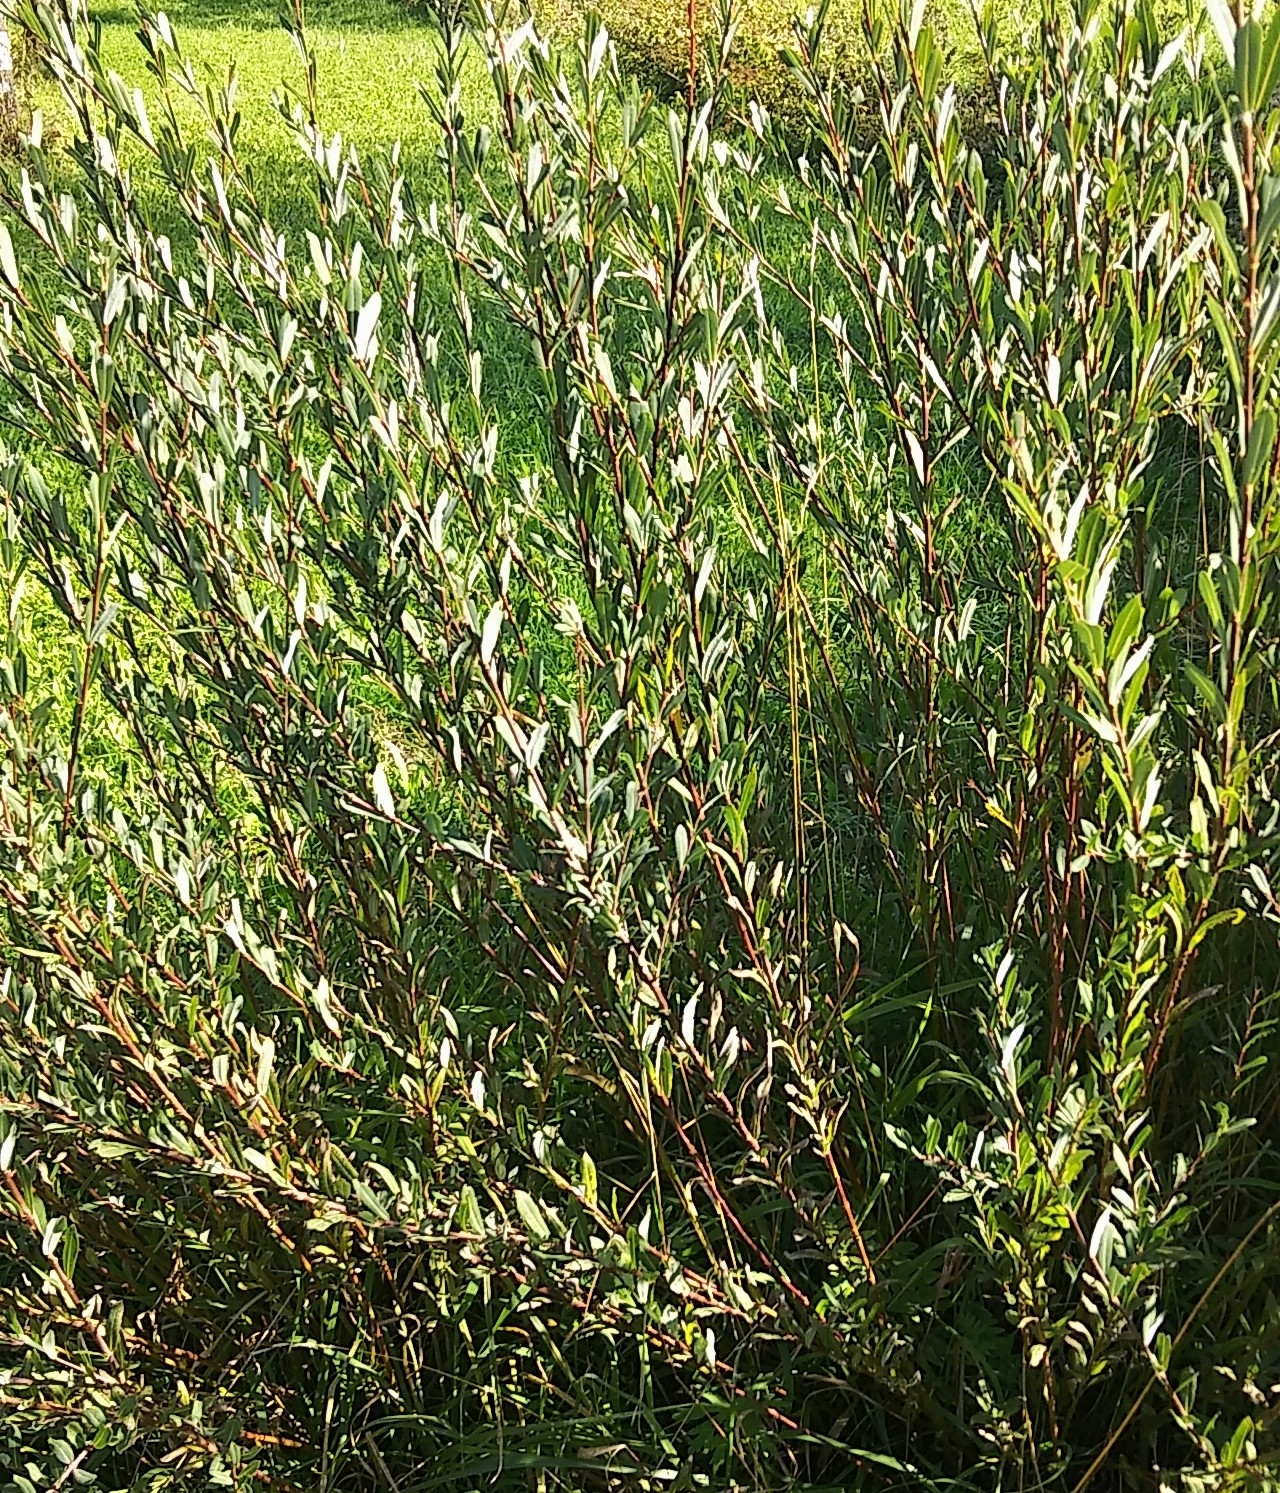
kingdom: Plantae
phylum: Tracheophyta
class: Magnoliopsida
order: Malpighiales
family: Salicaceae
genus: Salix
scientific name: Salix purpurea
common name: Purple willow
